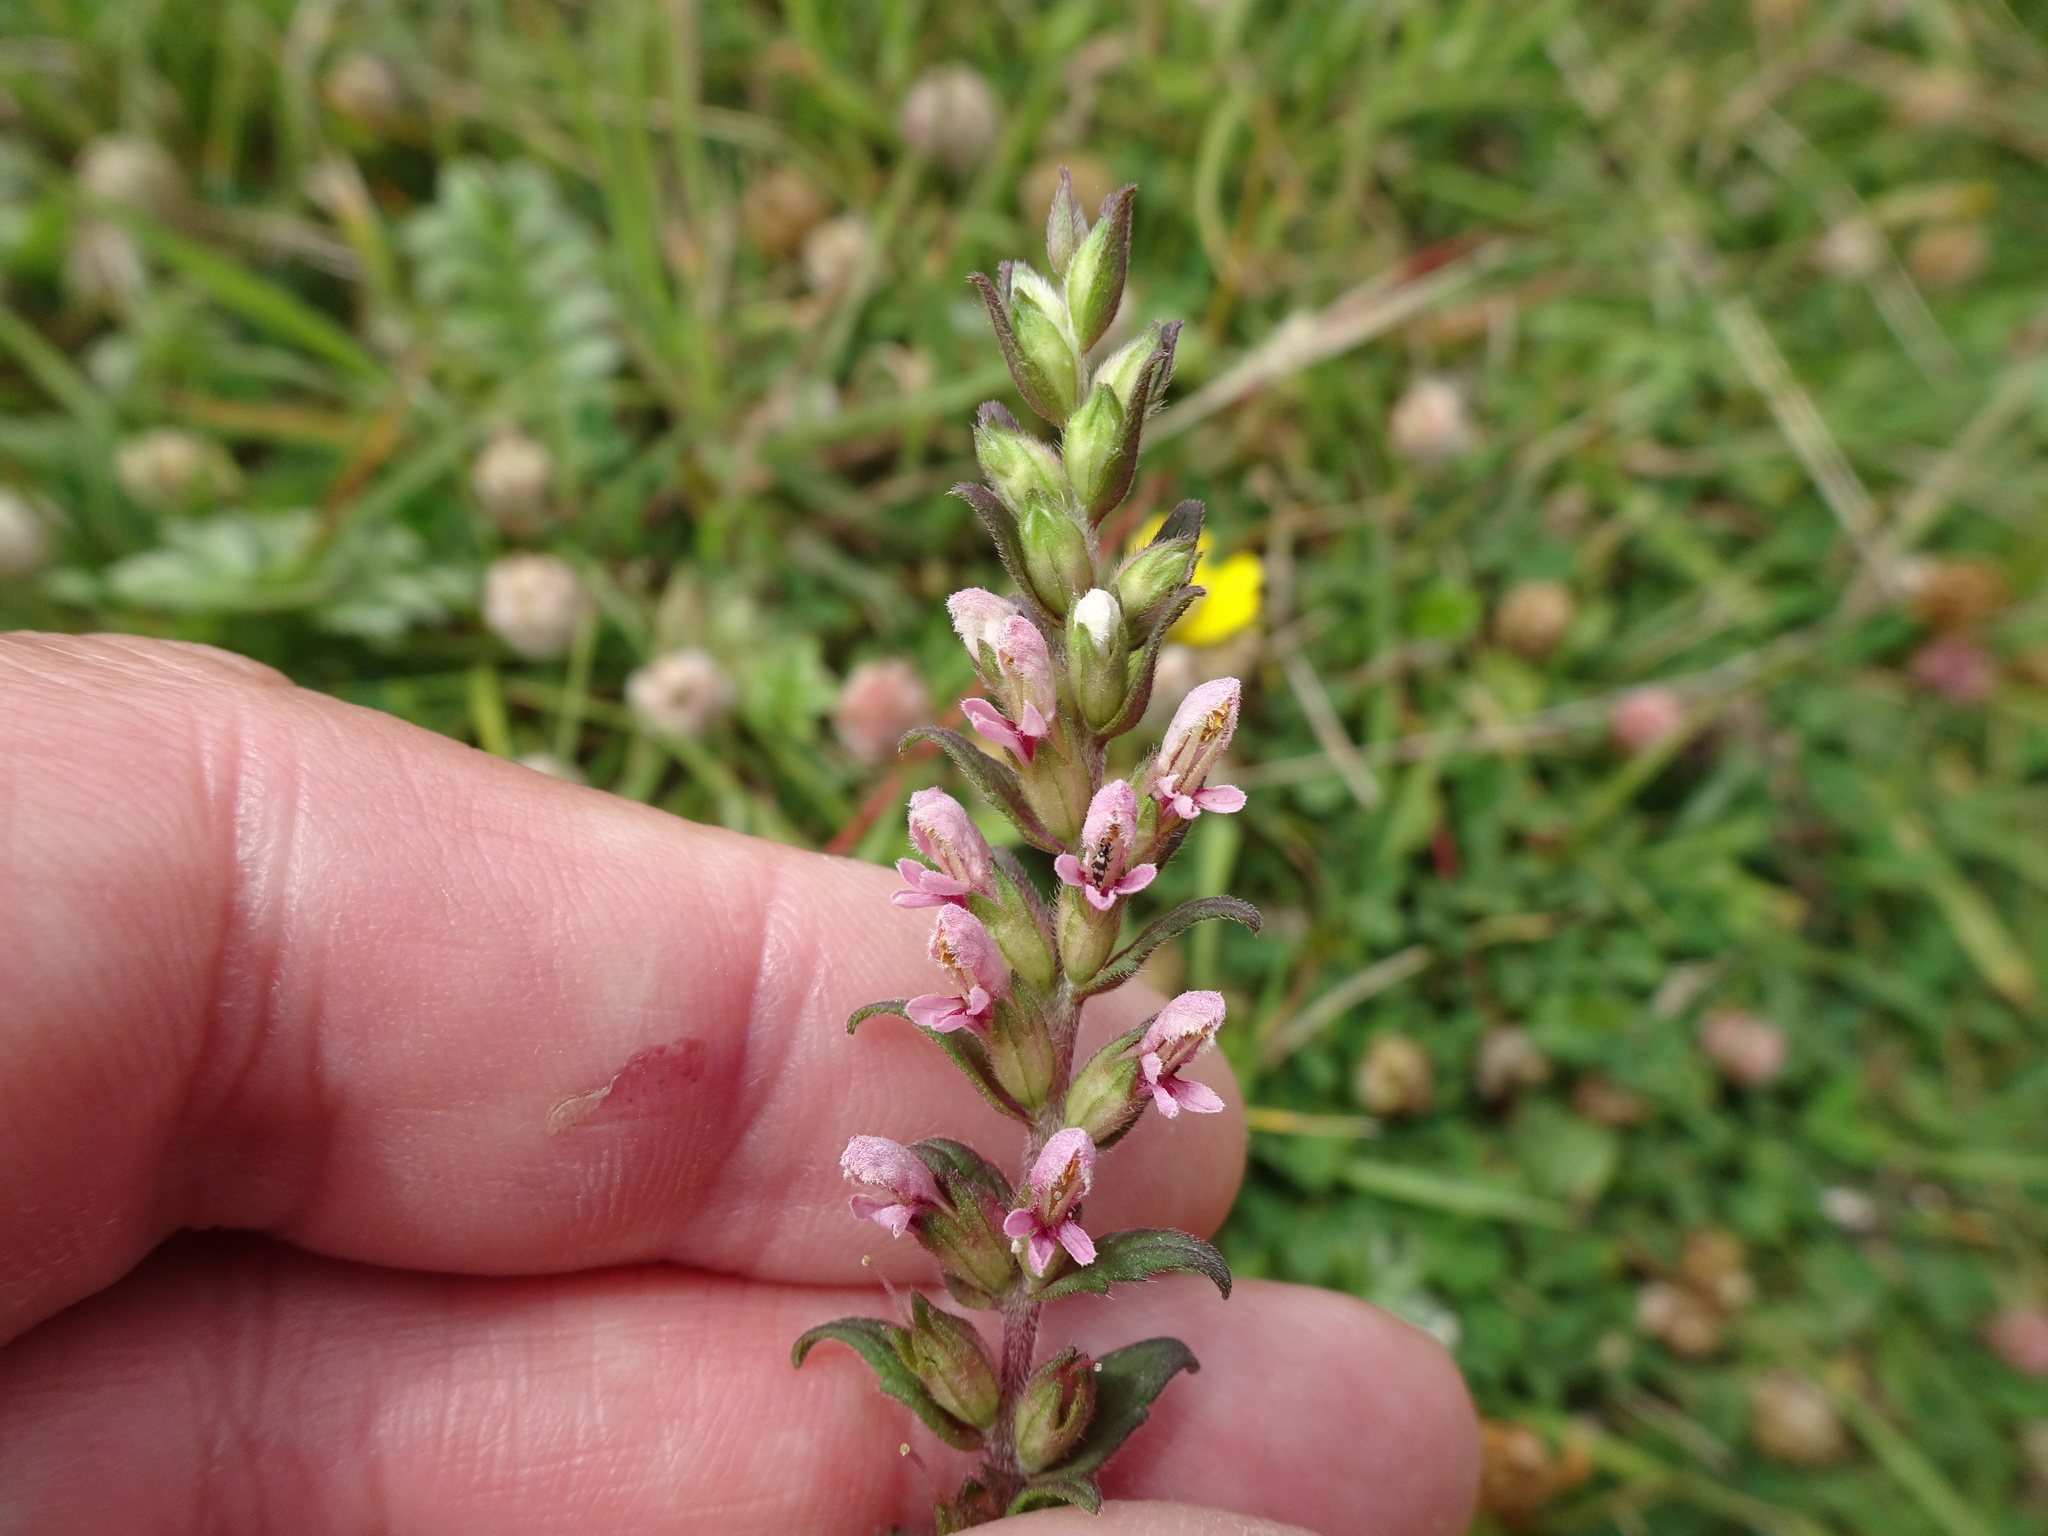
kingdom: Plantae
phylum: Tracheophyta
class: Magnoliopsida
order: Lamiales
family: Orobanchaceae
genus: Odontites
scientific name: Odontites vulgaris
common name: Broomrape
